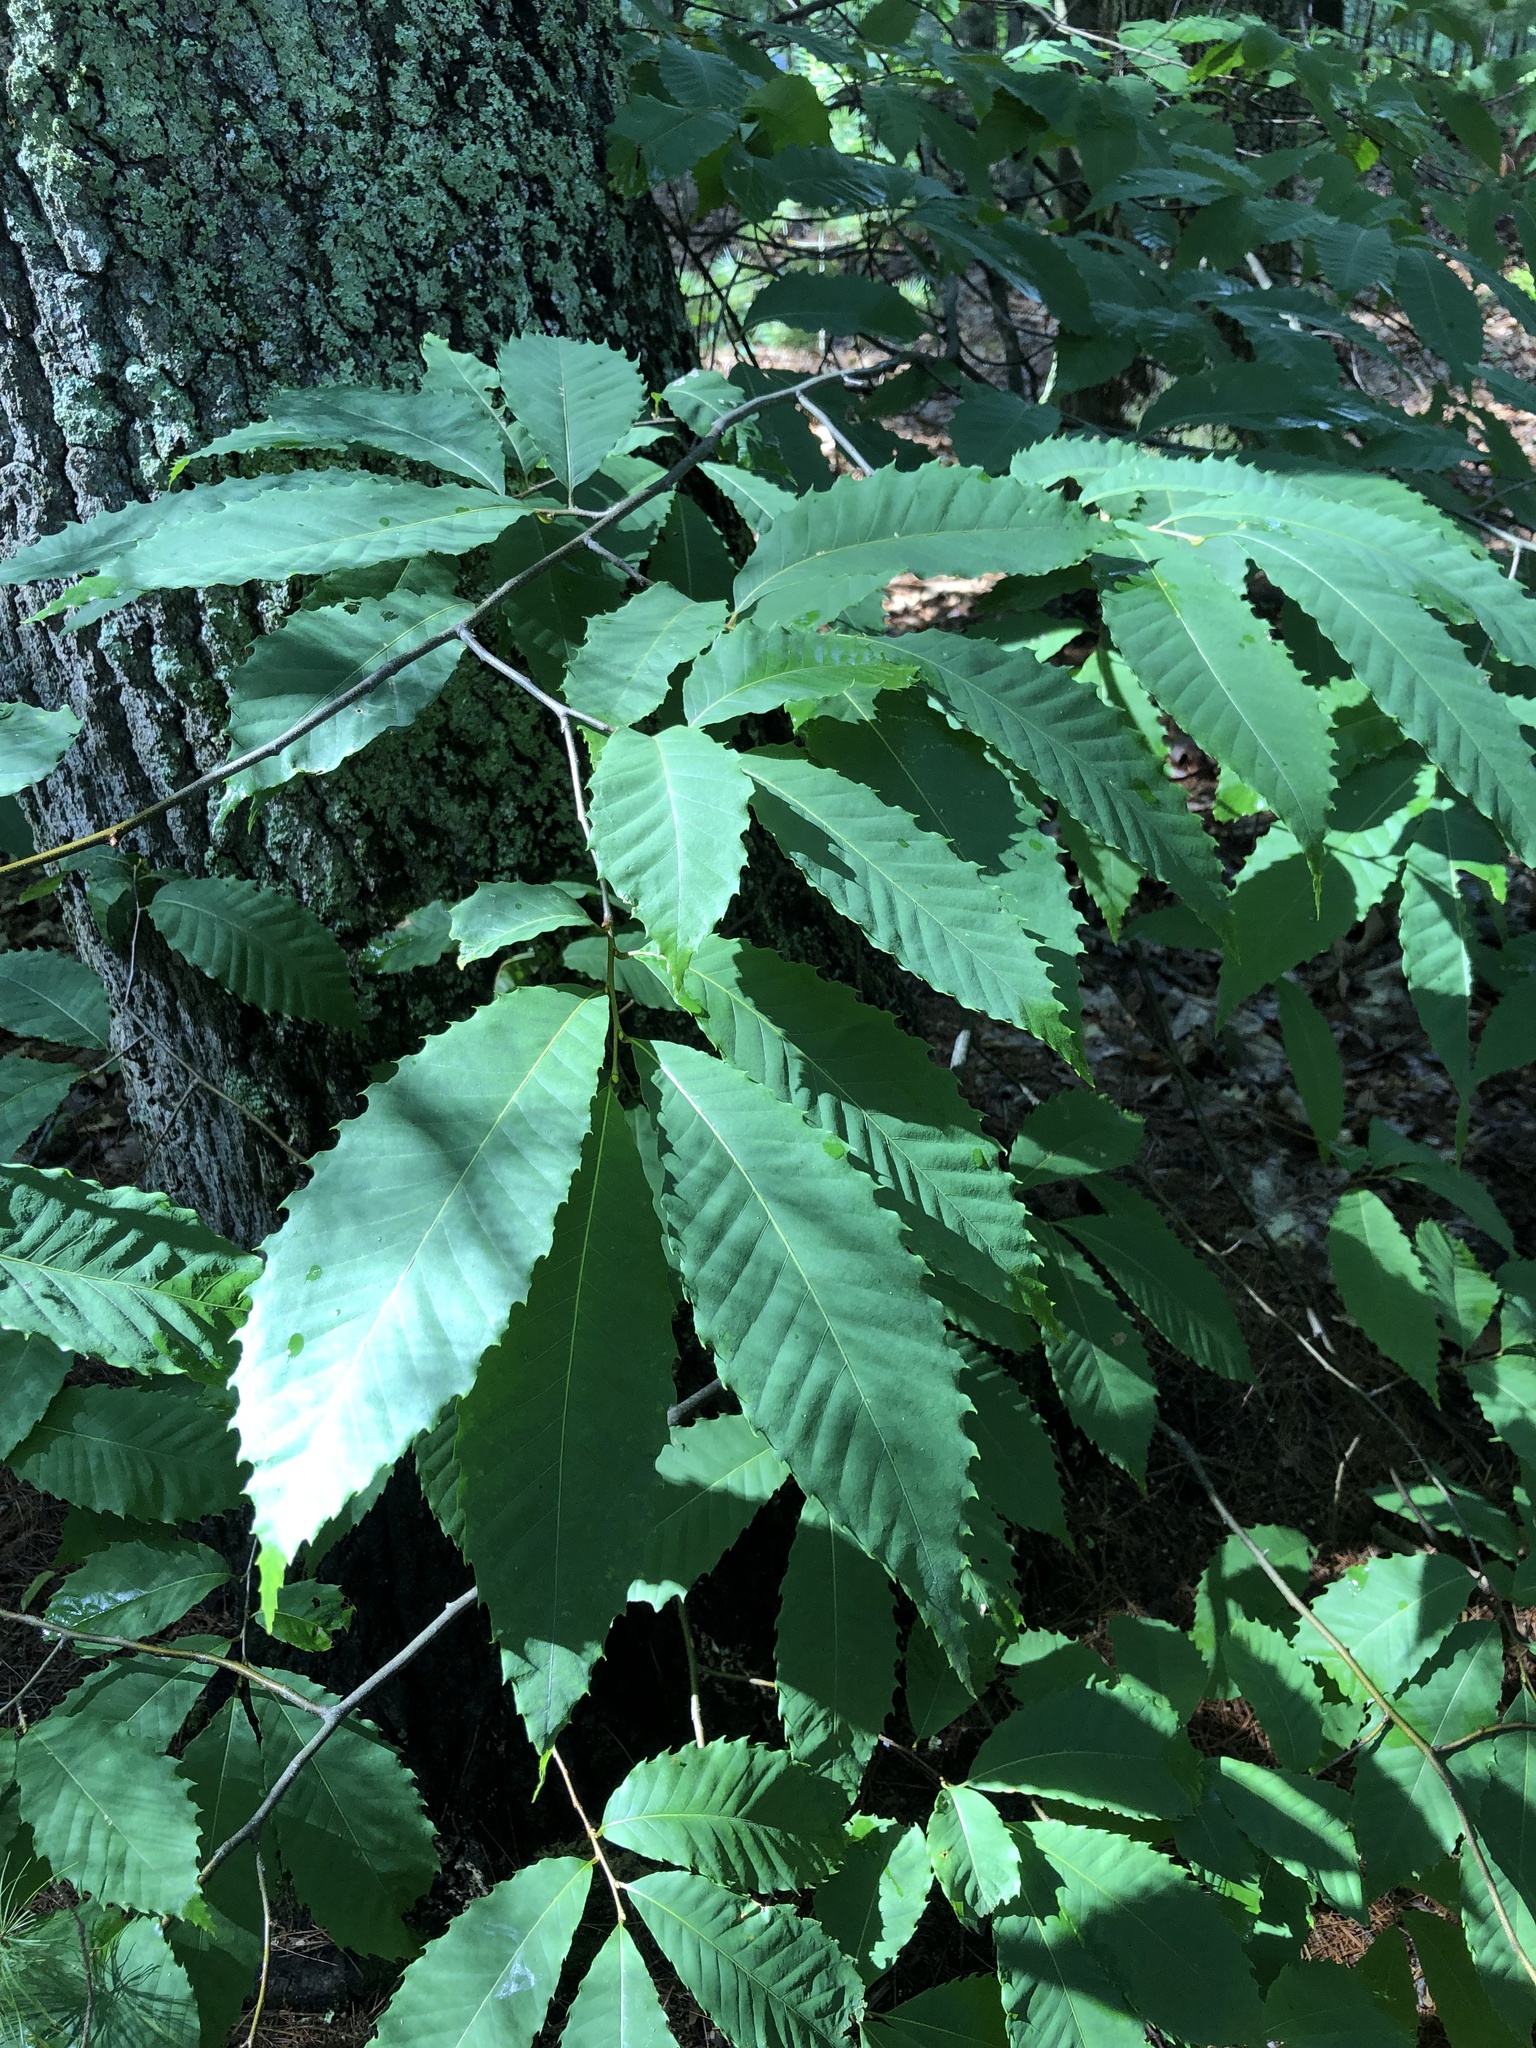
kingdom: Plantae
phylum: Tracheophyta
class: Magnoliopsida
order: Fagales
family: Fagaceae
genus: Castanea
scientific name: Castanea dentata
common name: American chestnut
